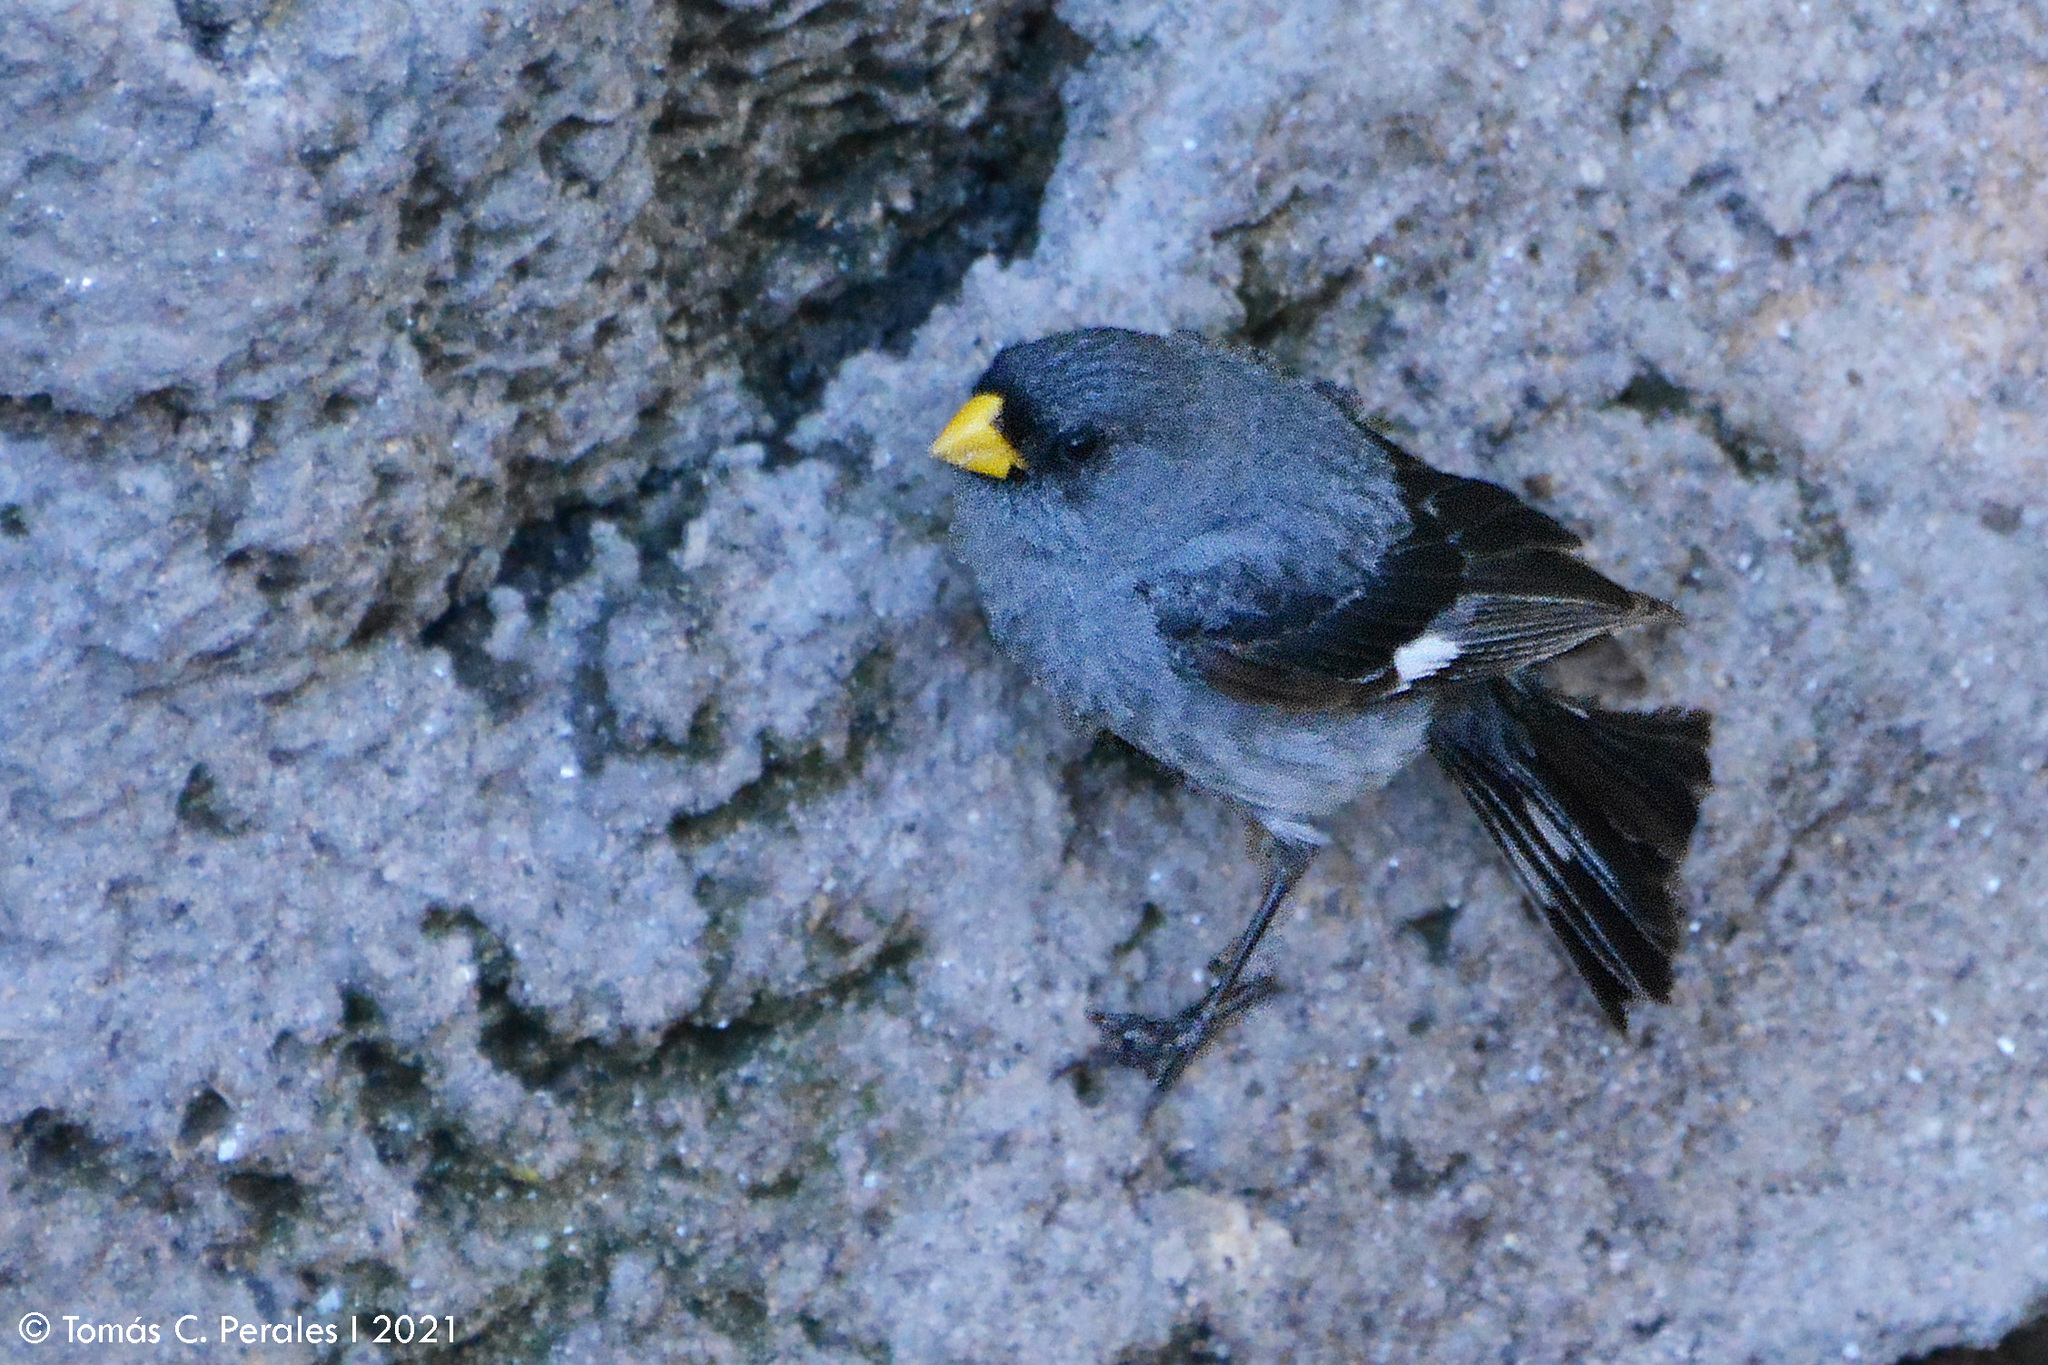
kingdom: Animalia
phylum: Chordata
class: Aves
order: Passeriformes
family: Thraupidae
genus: Catamenia
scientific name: Catamenia analis
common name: Band-tailed seedeater
